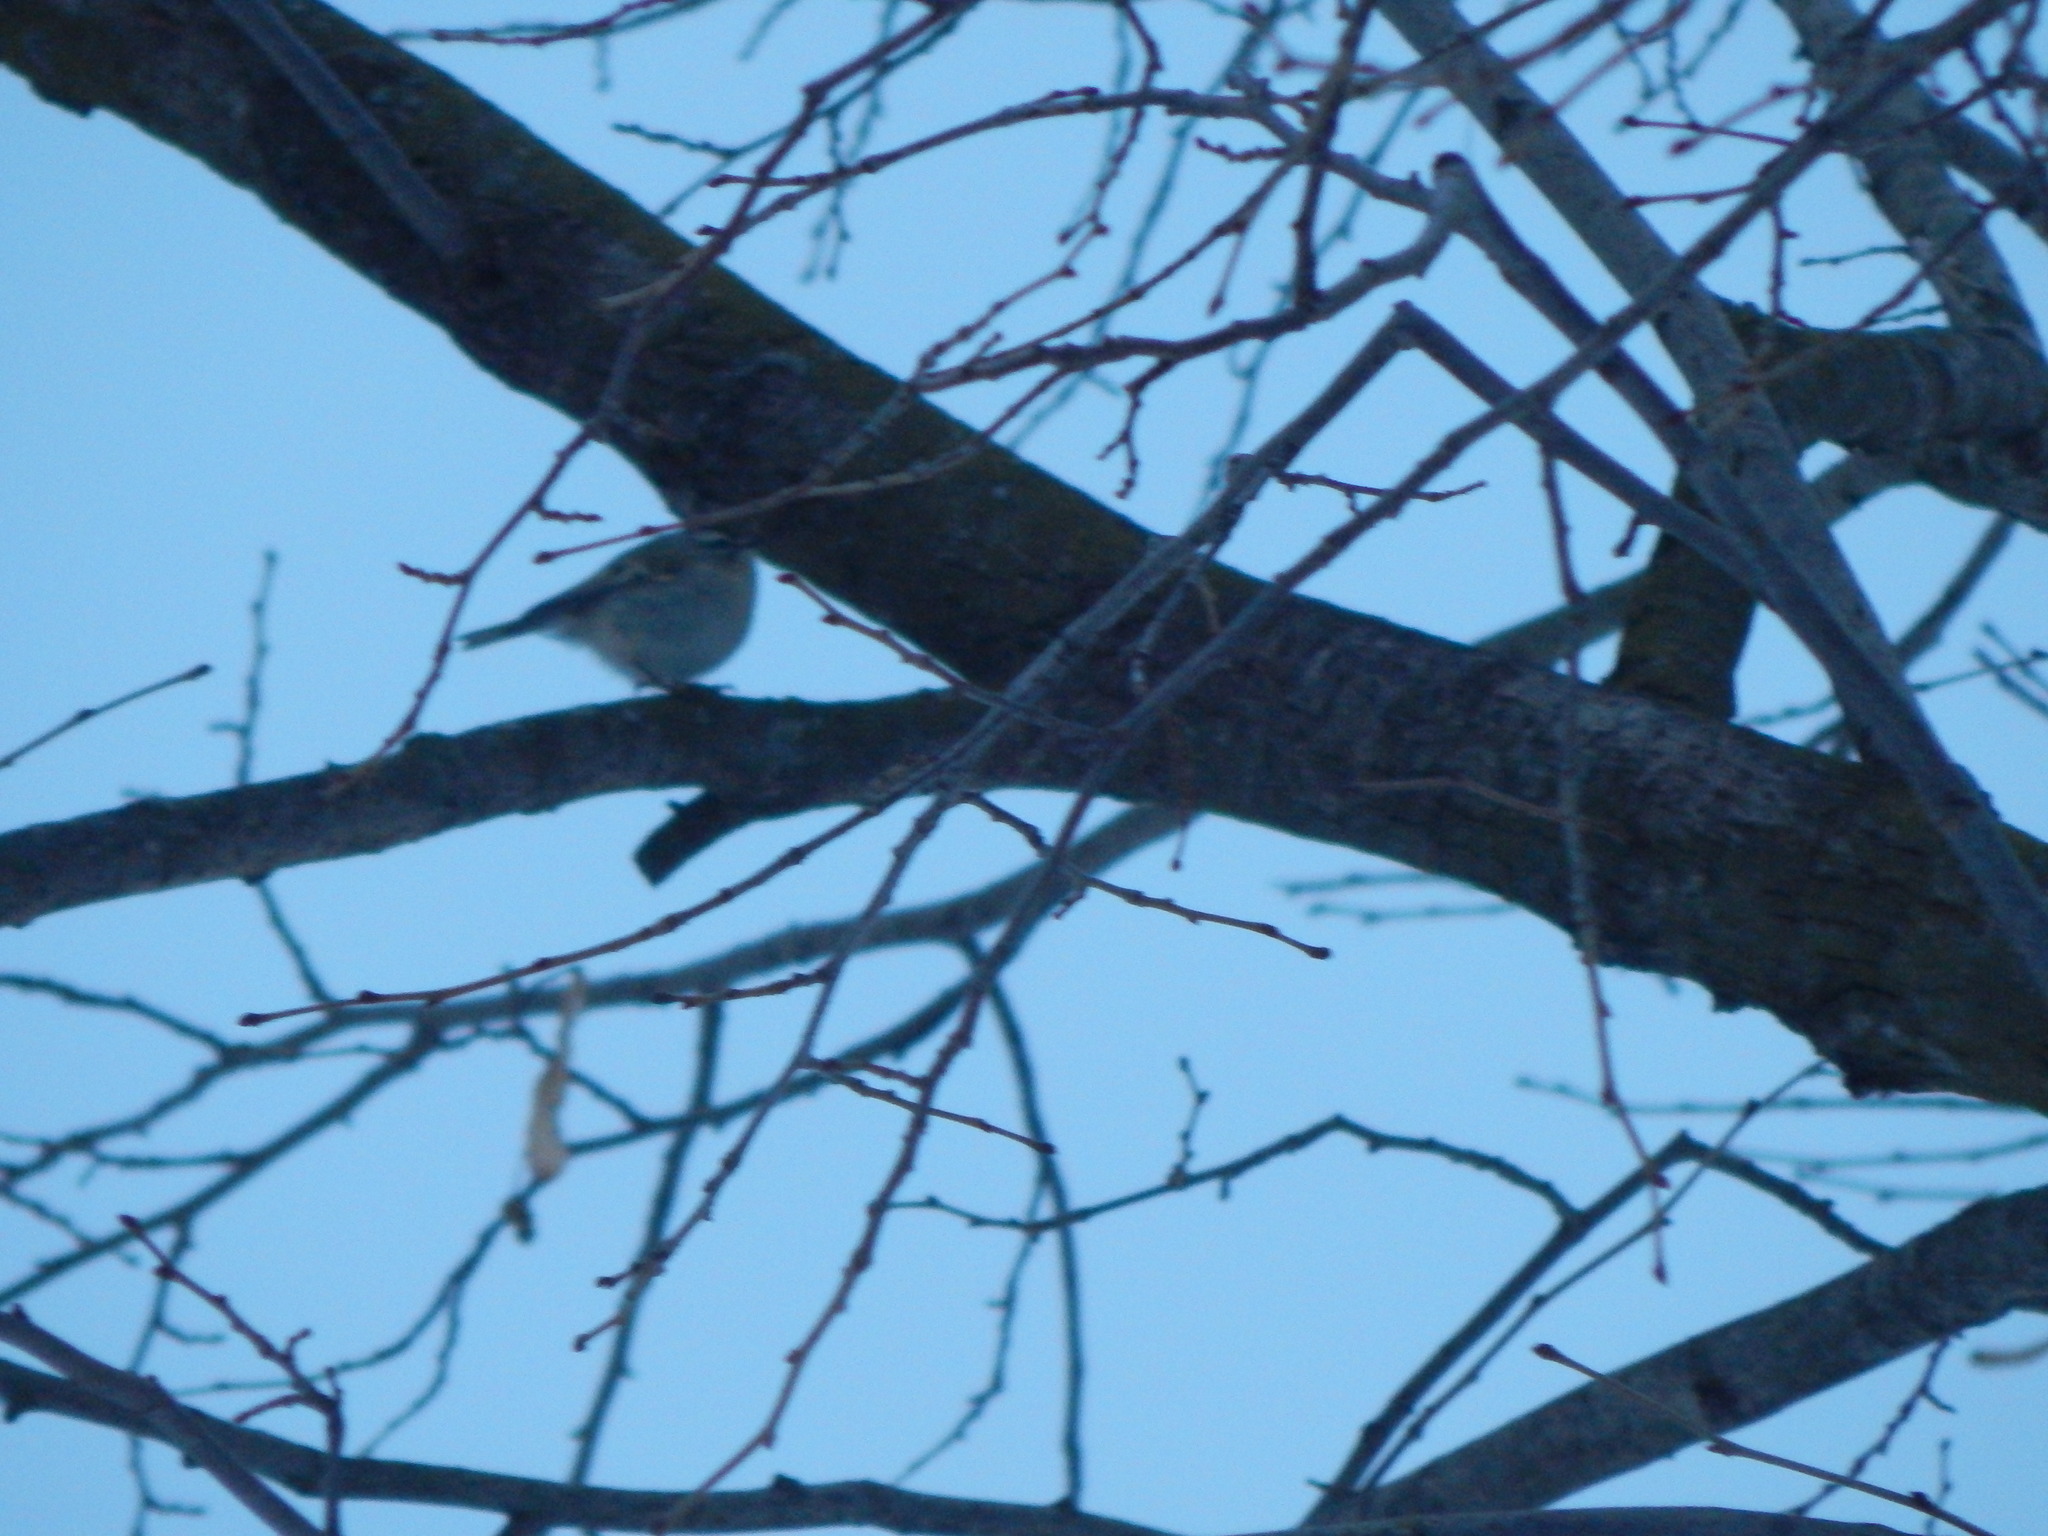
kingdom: Animalia
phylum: Chordata
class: Aves
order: Passeriformes
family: Regulidae
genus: Regulus
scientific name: Regulus satrapa
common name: Golden-crowned kinglet
